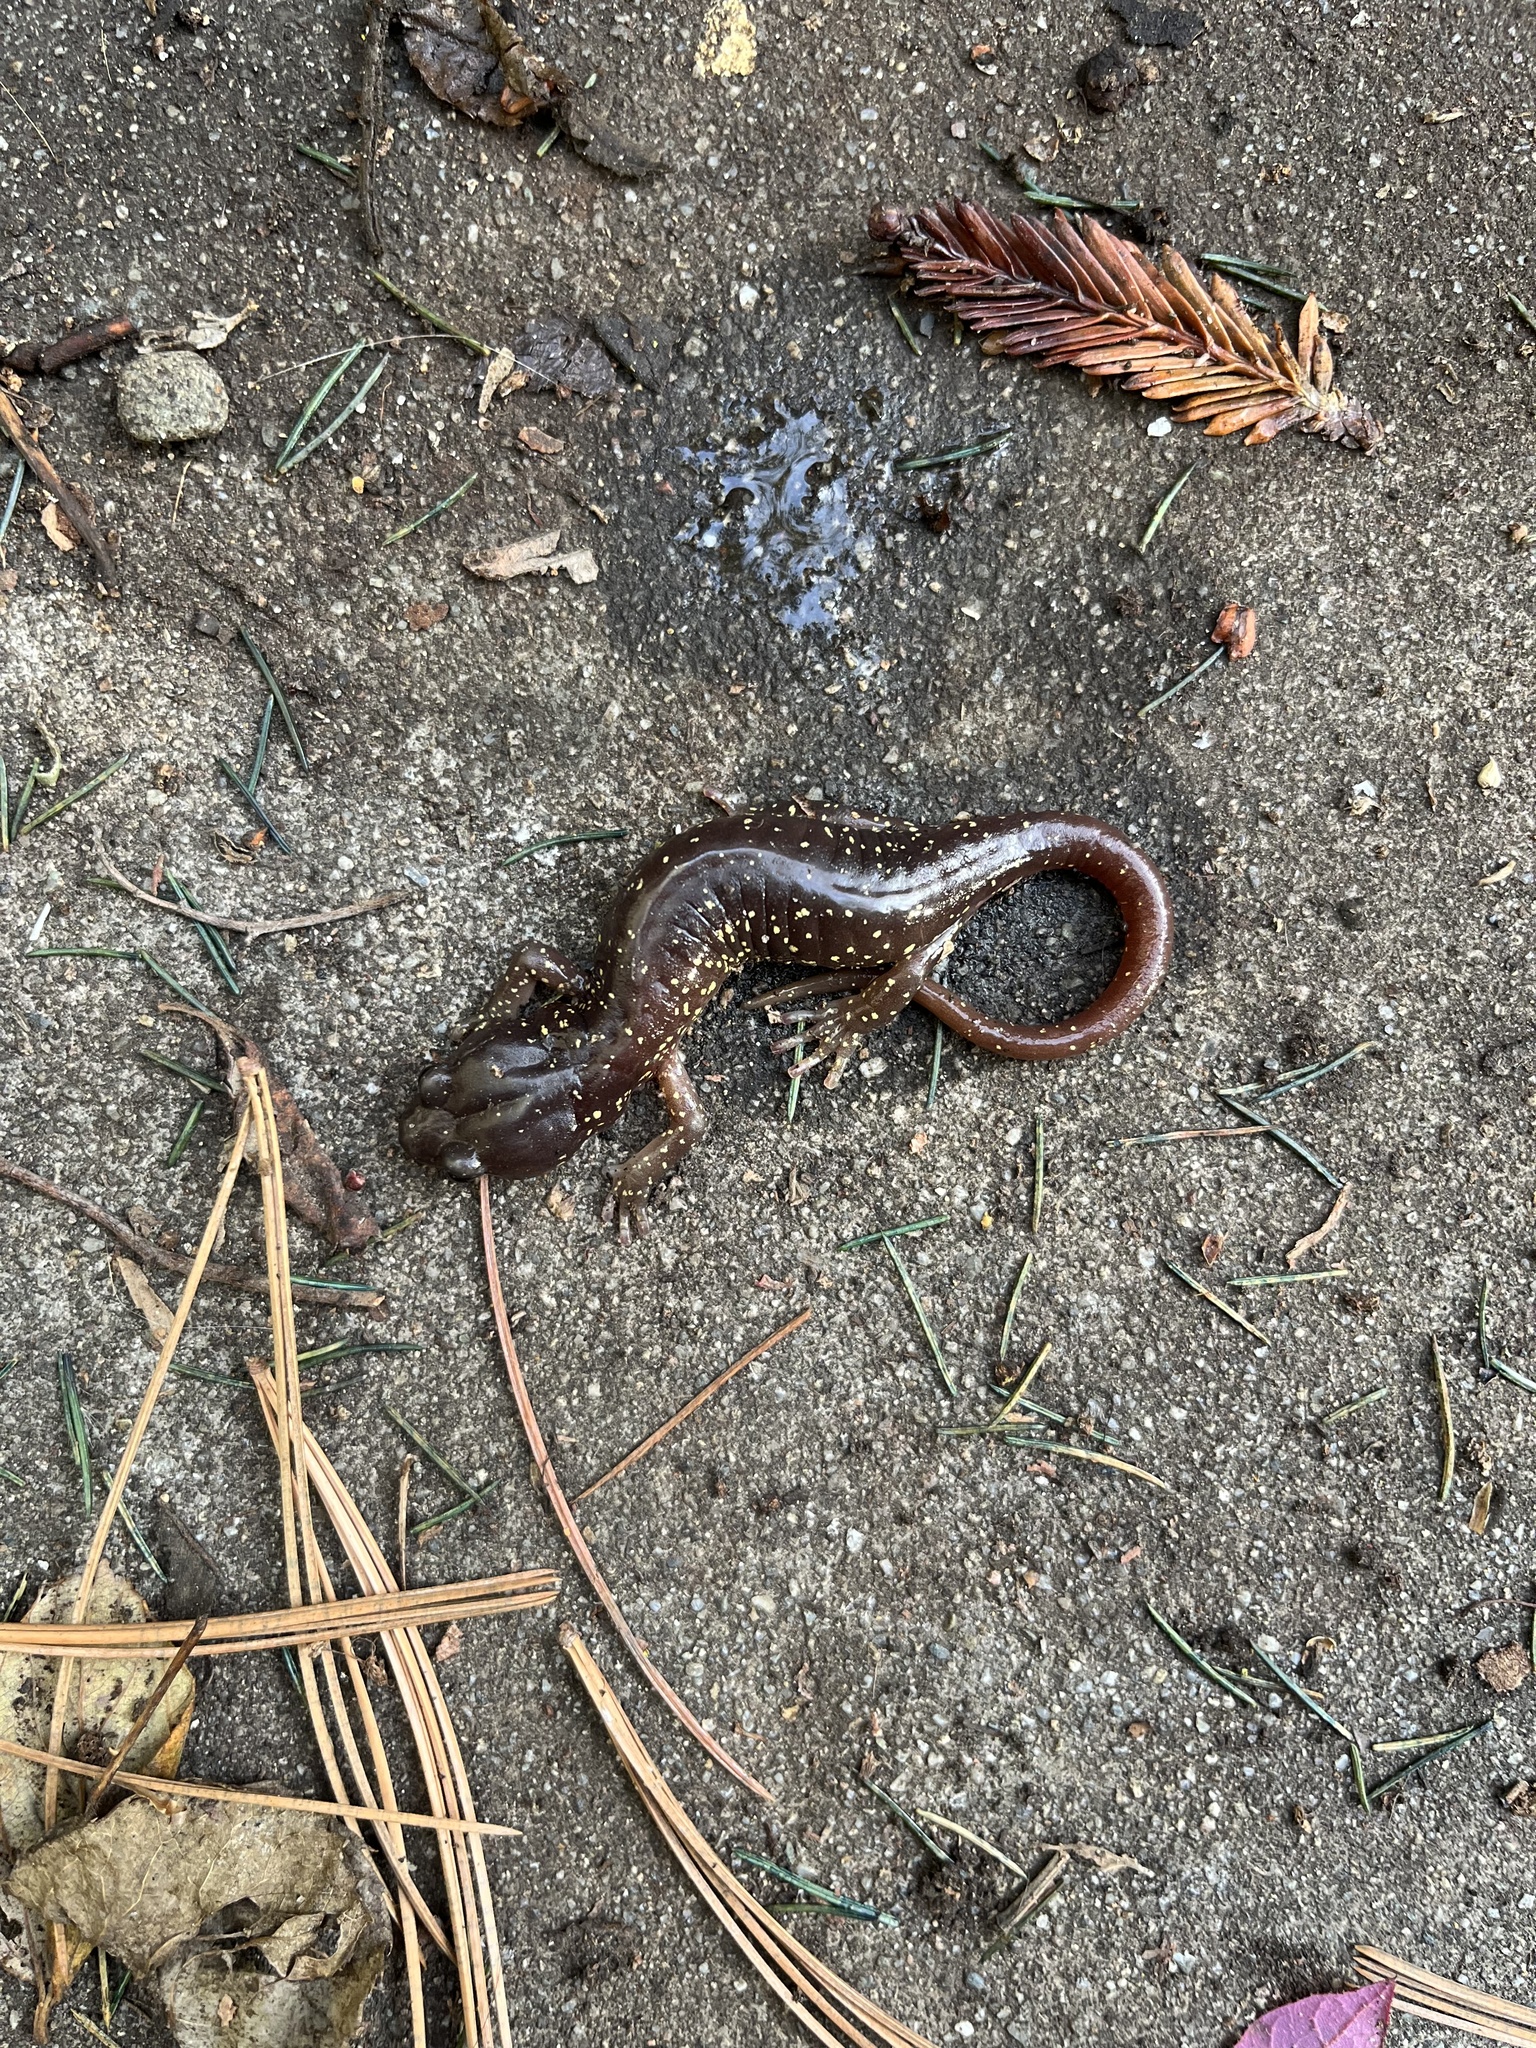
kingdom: Animalia
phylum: Chordata
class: Amphibia
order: Caudata
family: Plethodontidae
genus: Aneides
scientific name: Aneides lugubris
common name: Arboreal salamander
